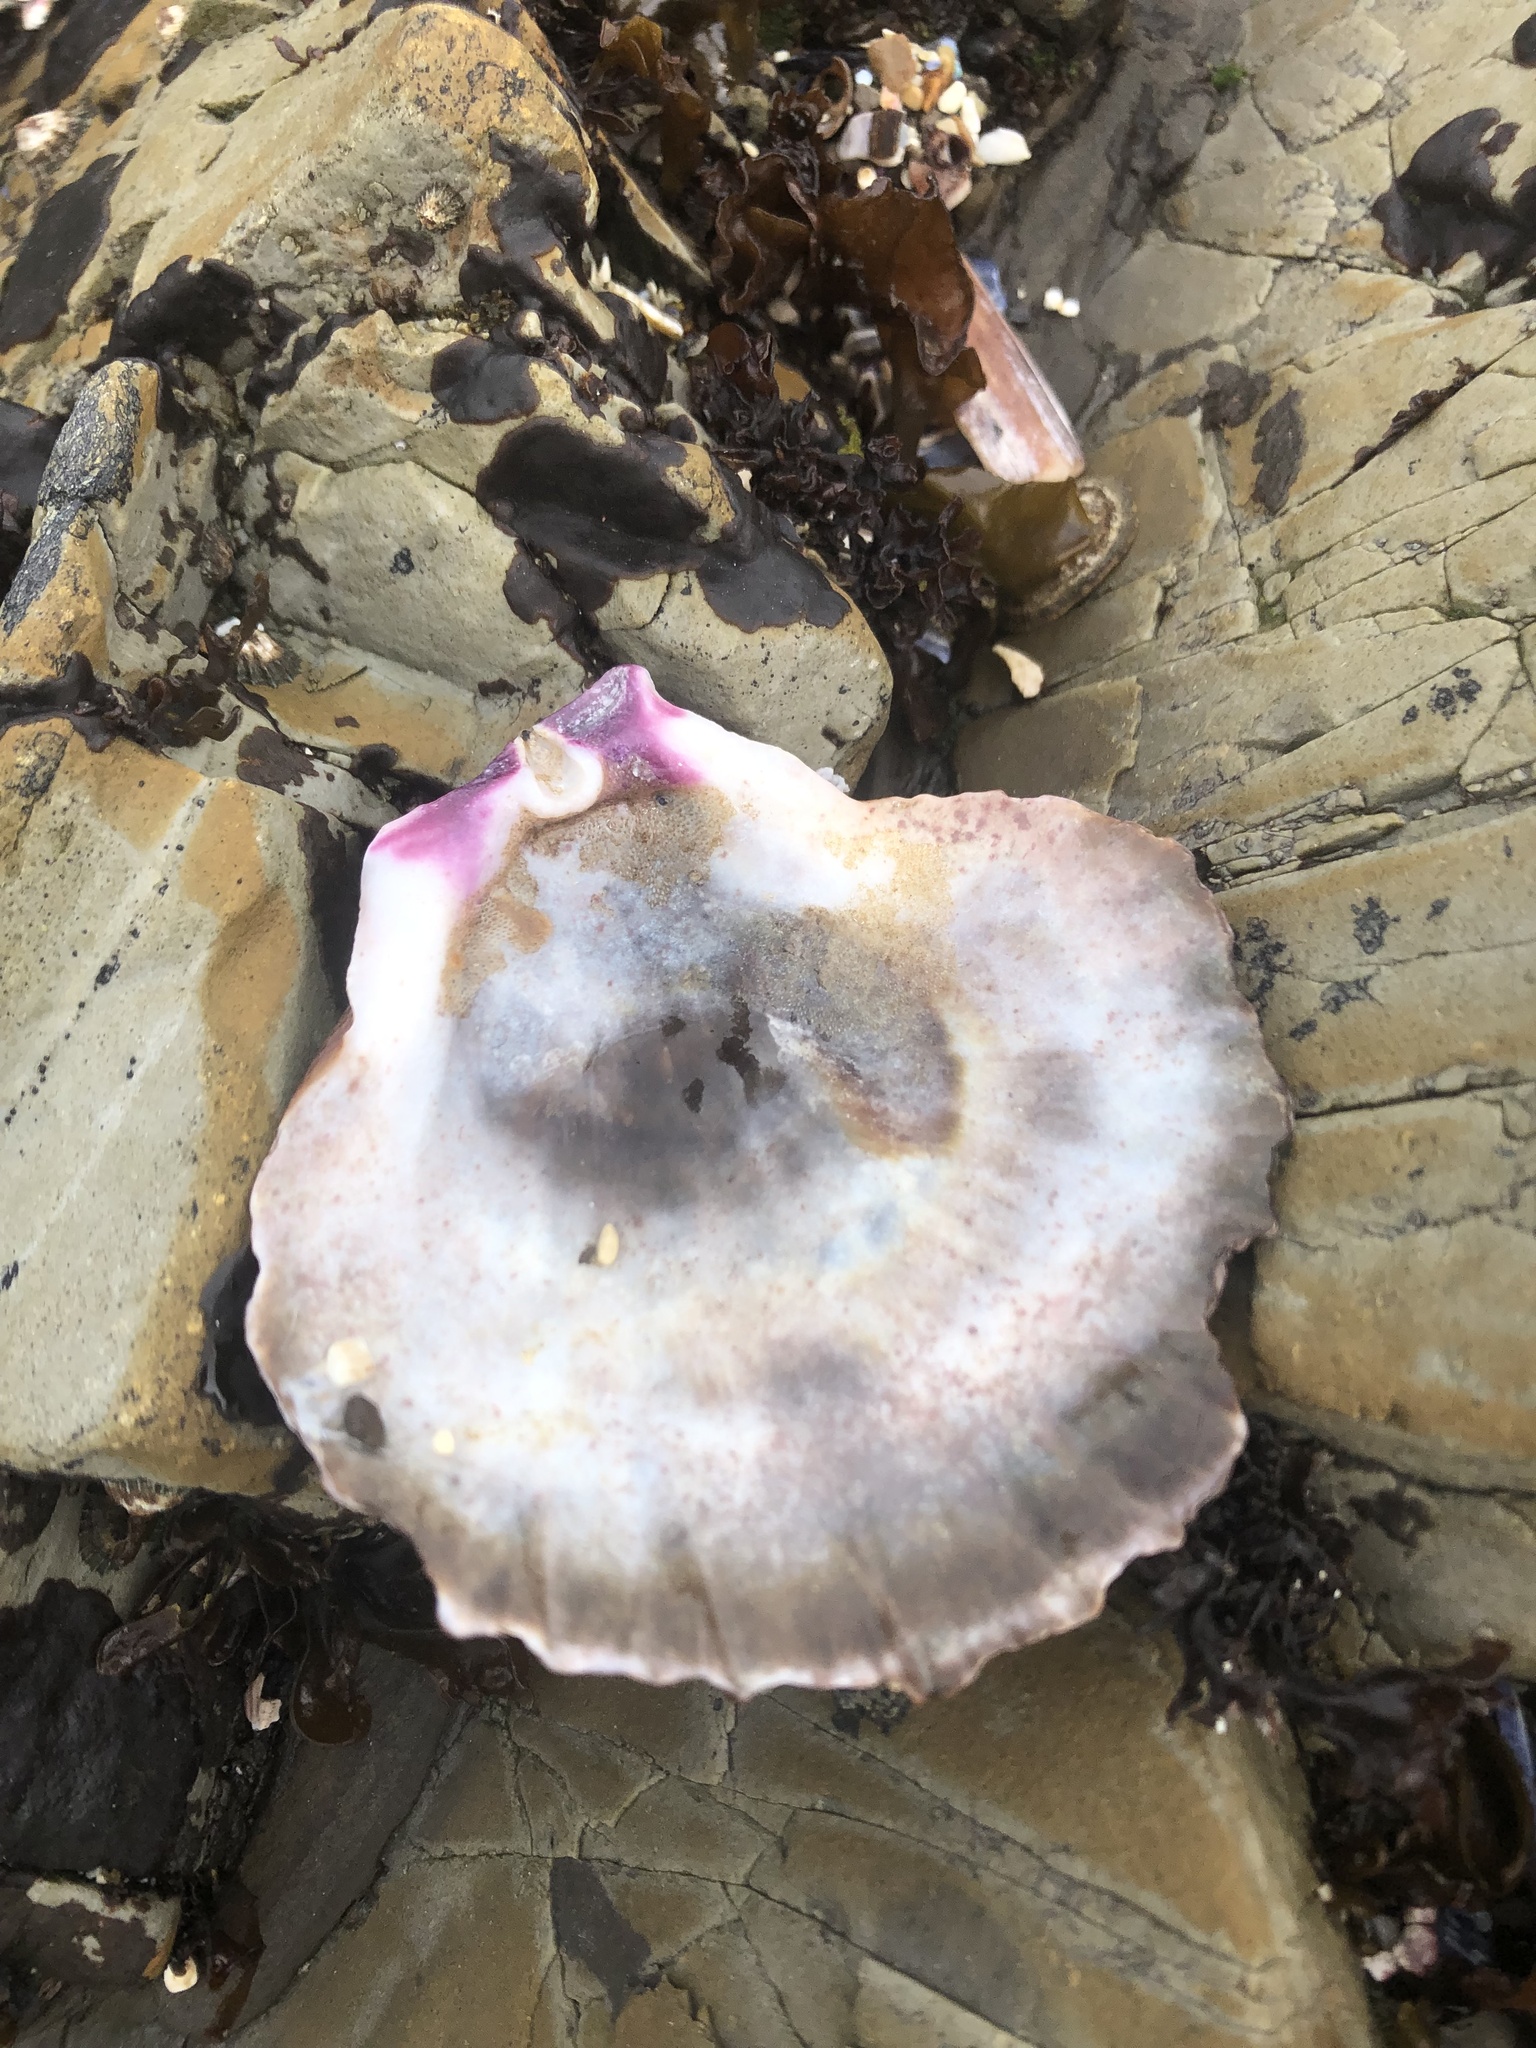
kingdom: Animalia
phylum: Mollusca
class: Bivalvia
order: Pectinida
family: Pectinidae
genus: Crassadoma
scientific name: Crassadoma gigantea
